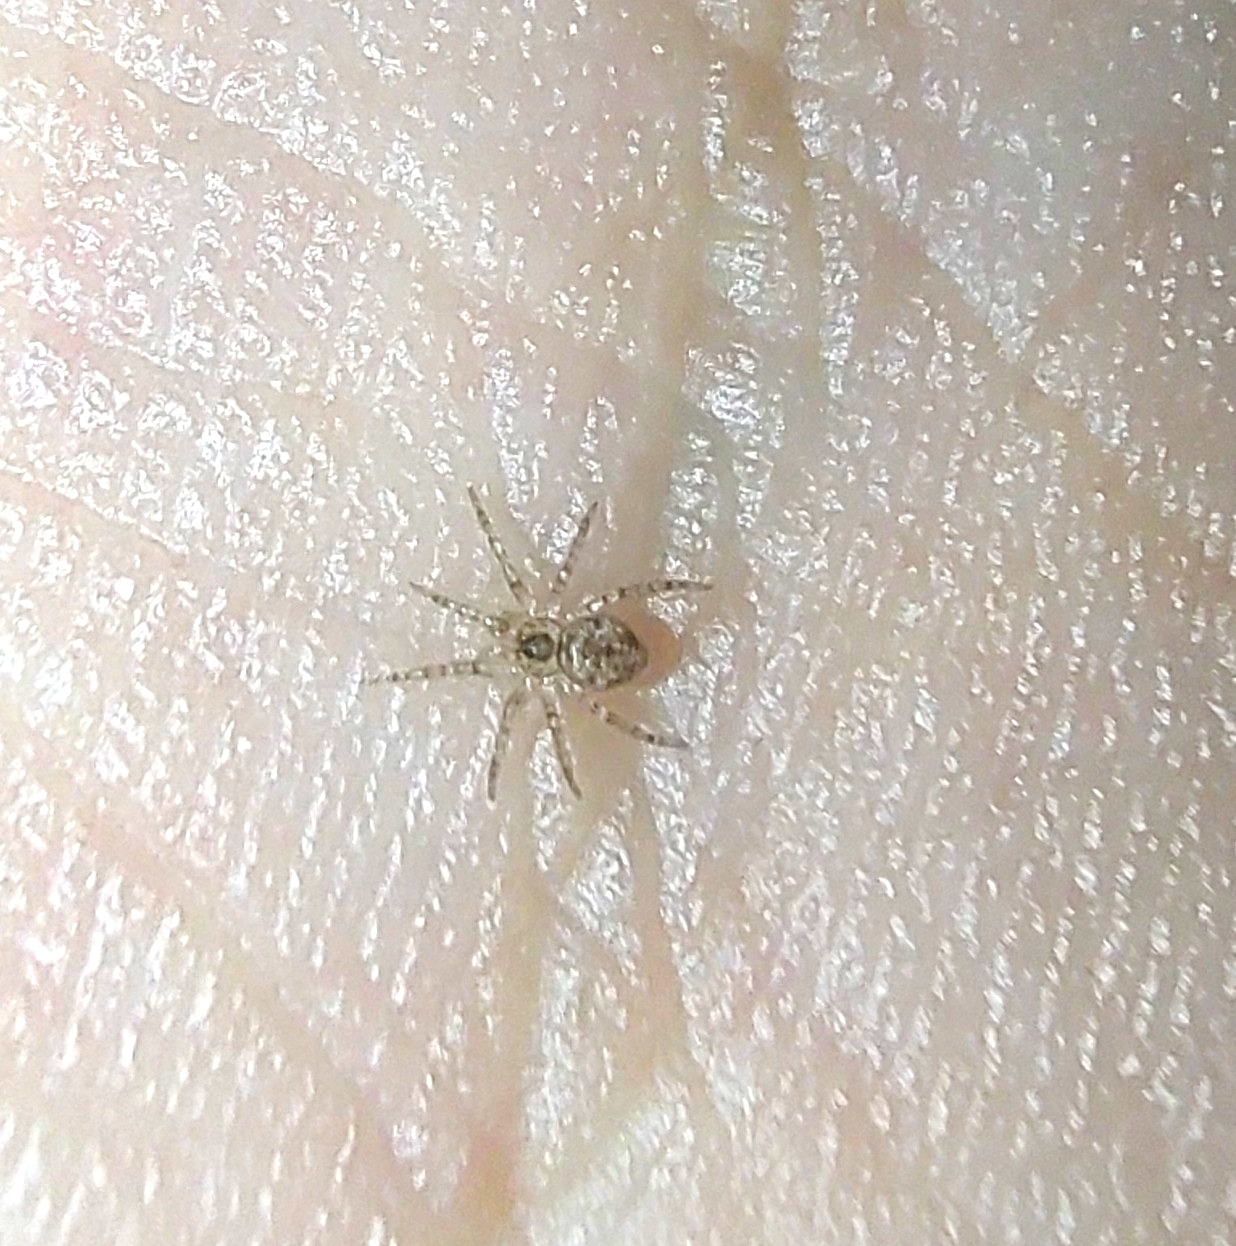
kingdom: Animalia
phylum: Arthropoda
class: Arachnida
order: Araneae
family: Oecobiidae
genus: Oecobius
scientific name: Oecobius navus
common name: Flatmesh weaver
